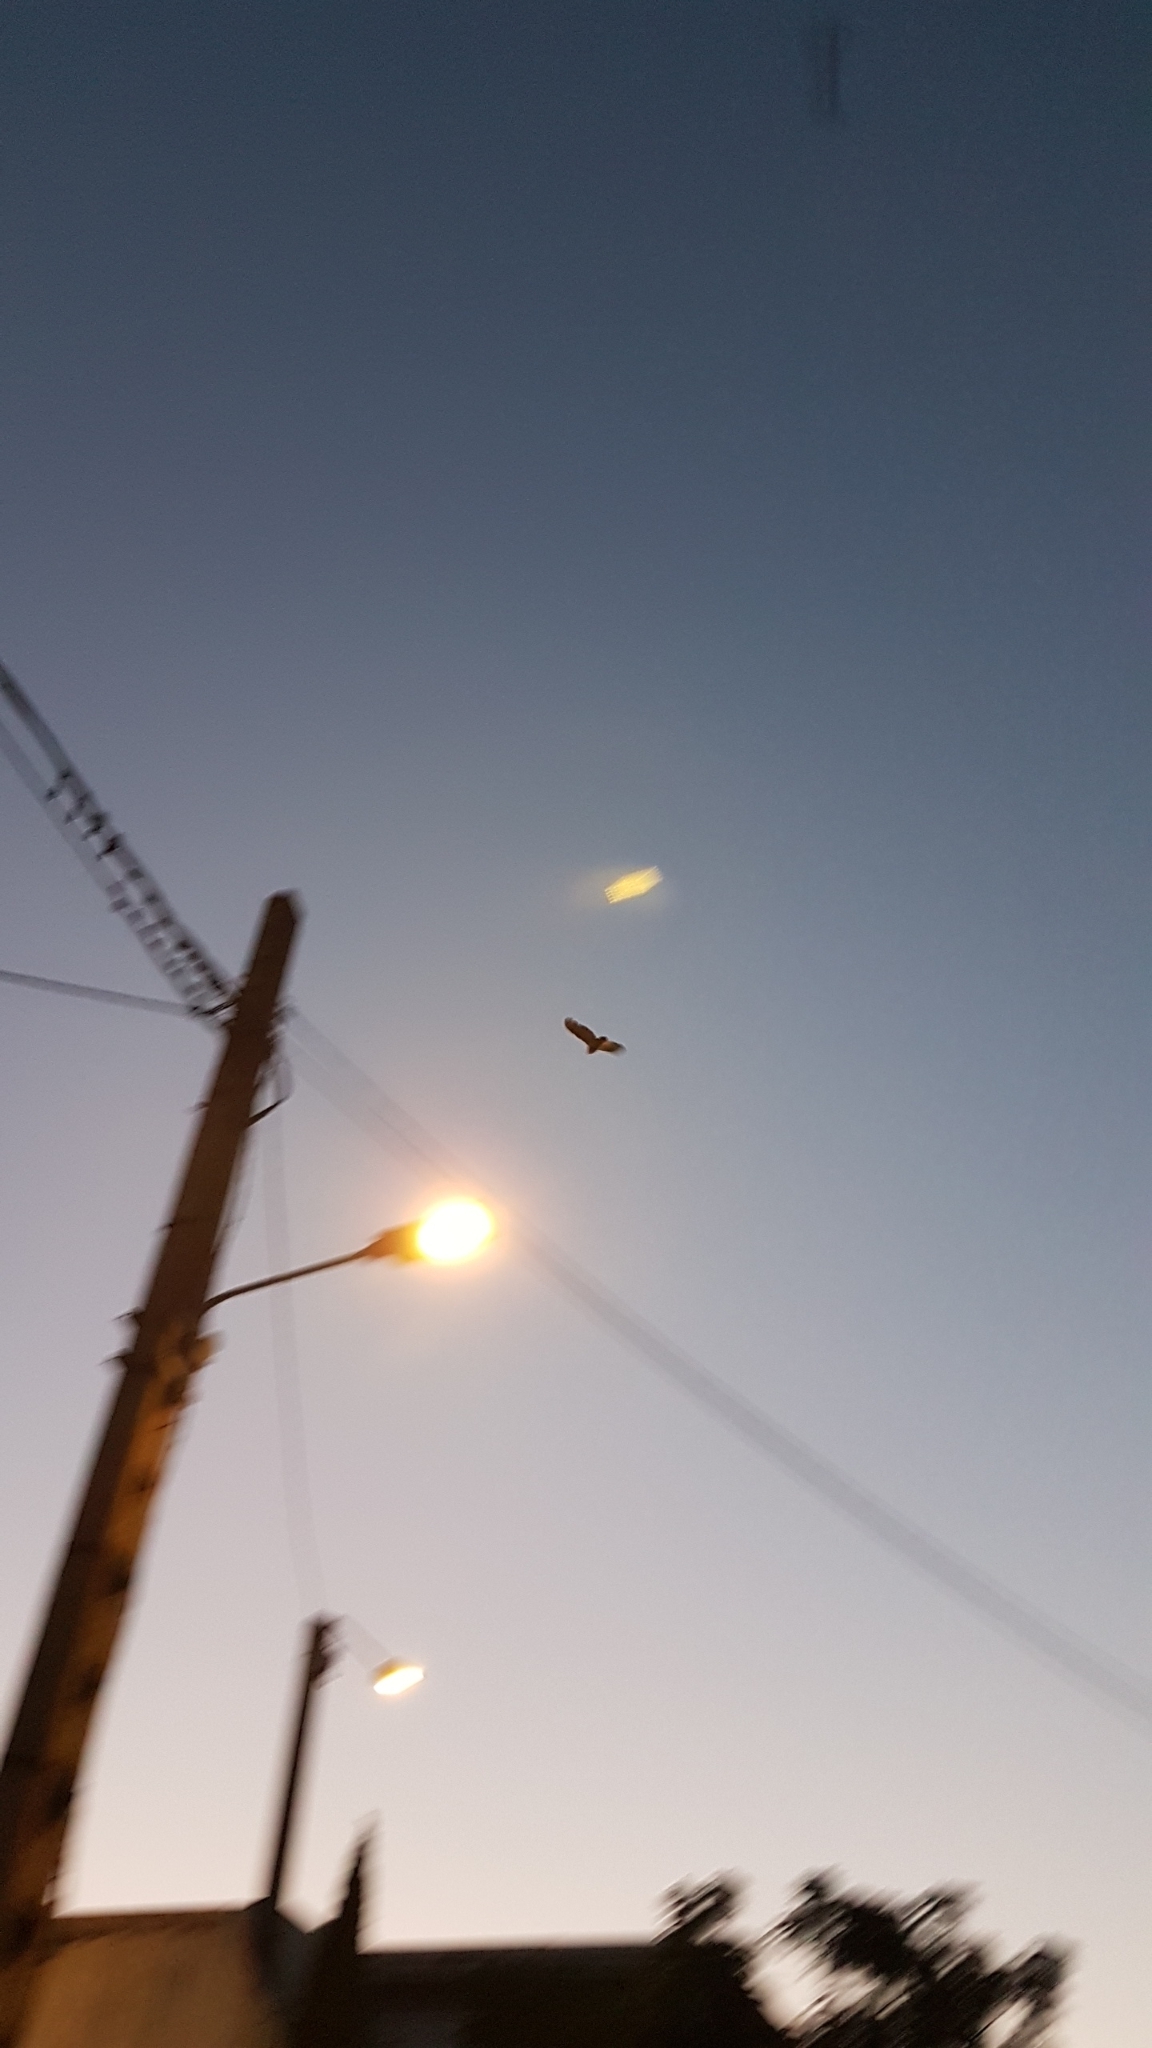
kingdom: Animalia
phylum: Chordata
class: Aves
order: Strigiformes
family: Strigidae
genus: Bubo
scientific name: Bubo bubo
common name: Eurasian eagle-owl
